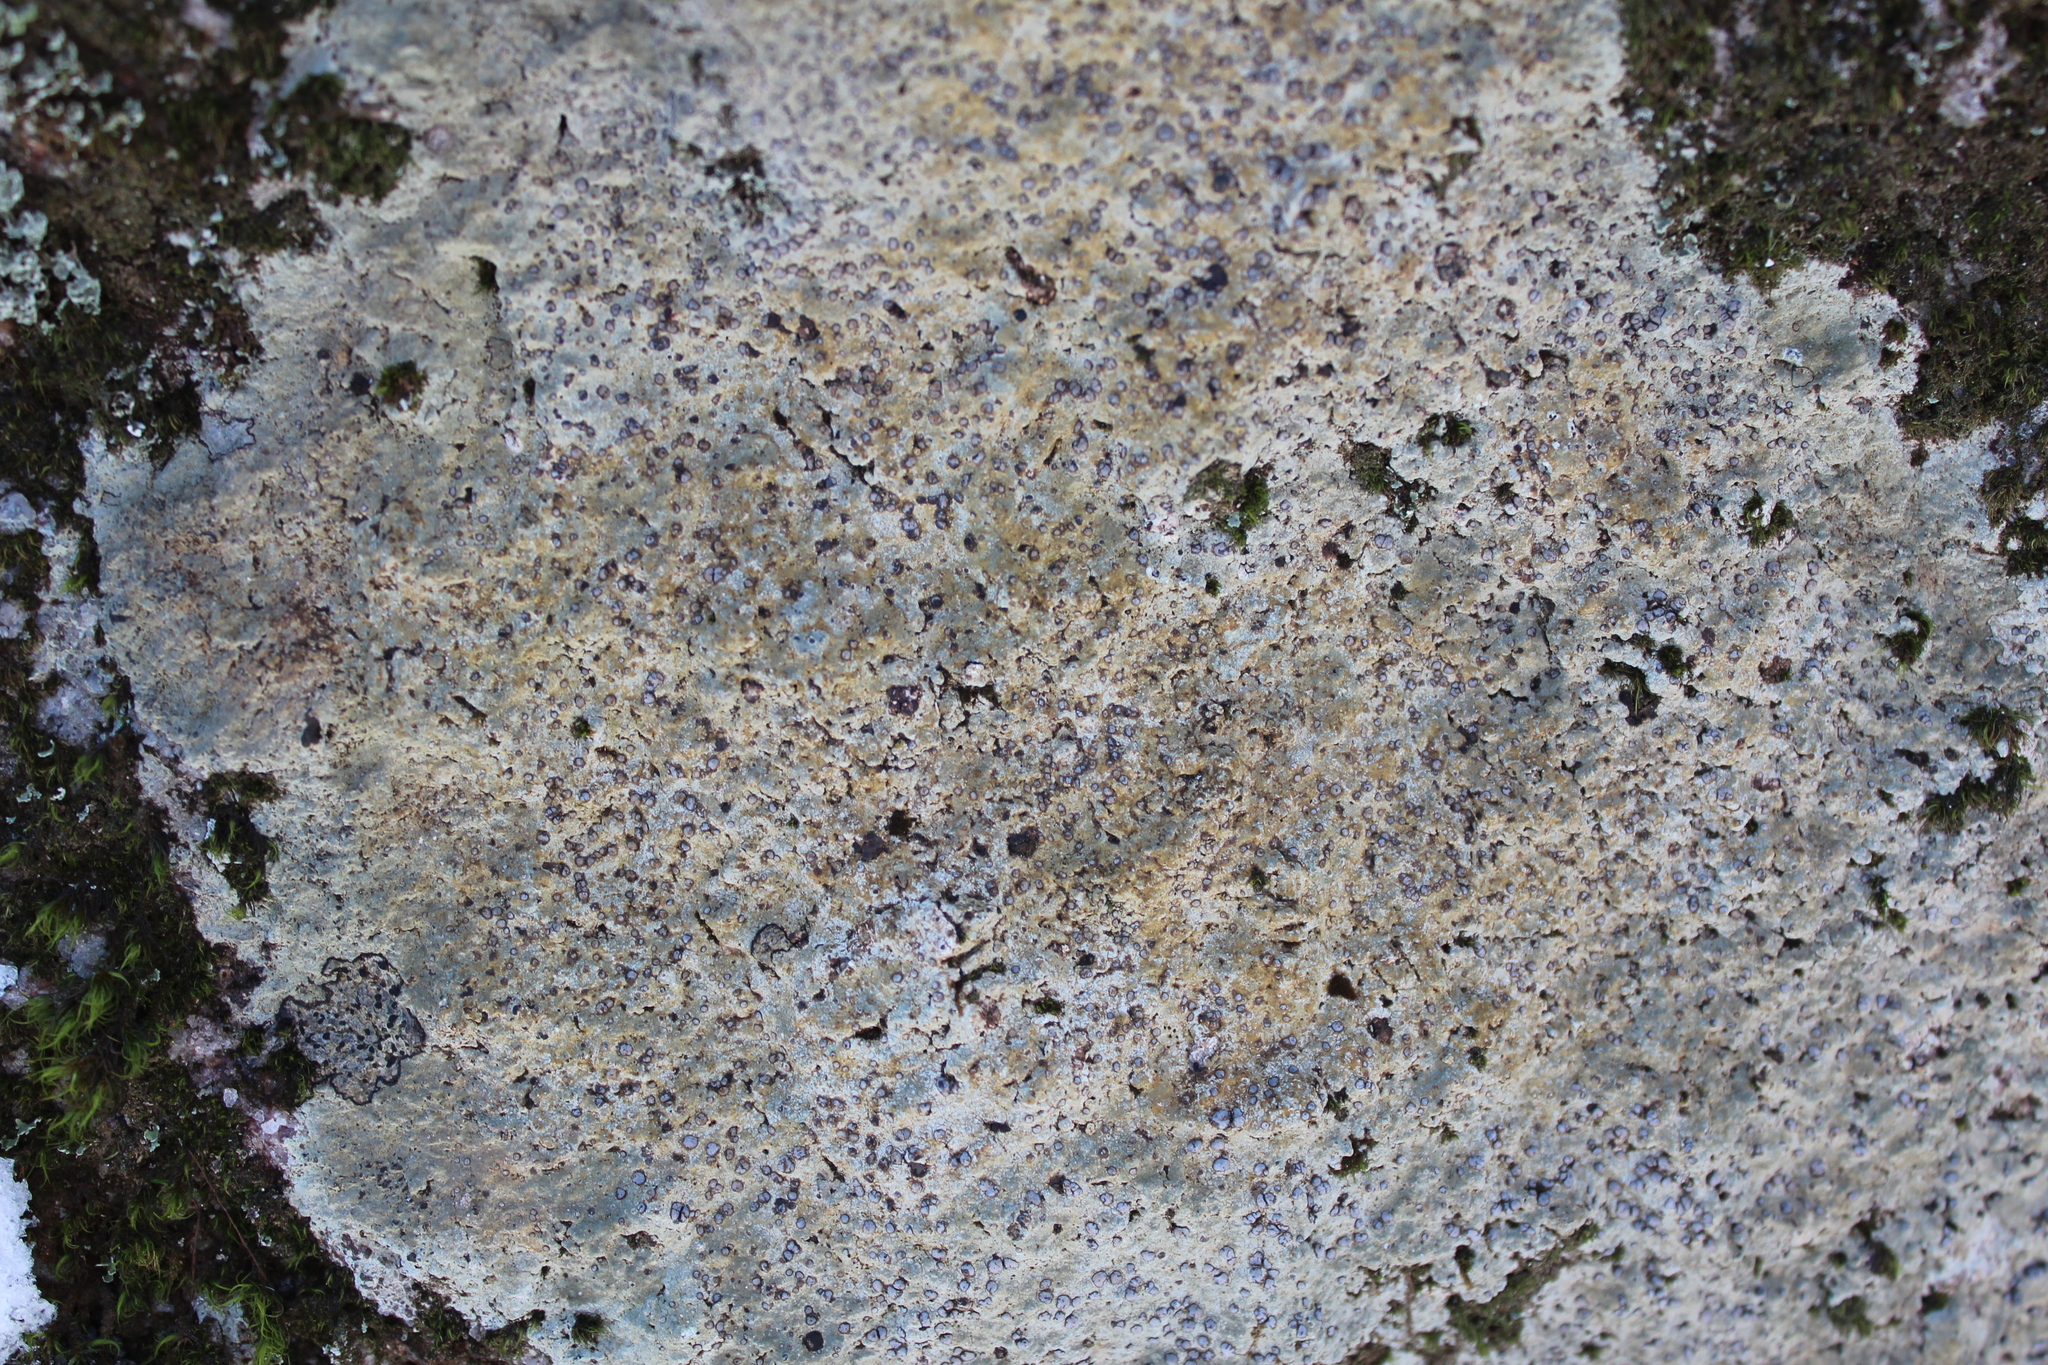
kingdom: Fungi
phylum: Ascomycota
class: Lecanoromycetes
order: Lecideales
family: Lecideaceae
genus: Porpidia
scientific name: Porpidia albocaerulescens
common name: Smokey-eyed boulder lichen
